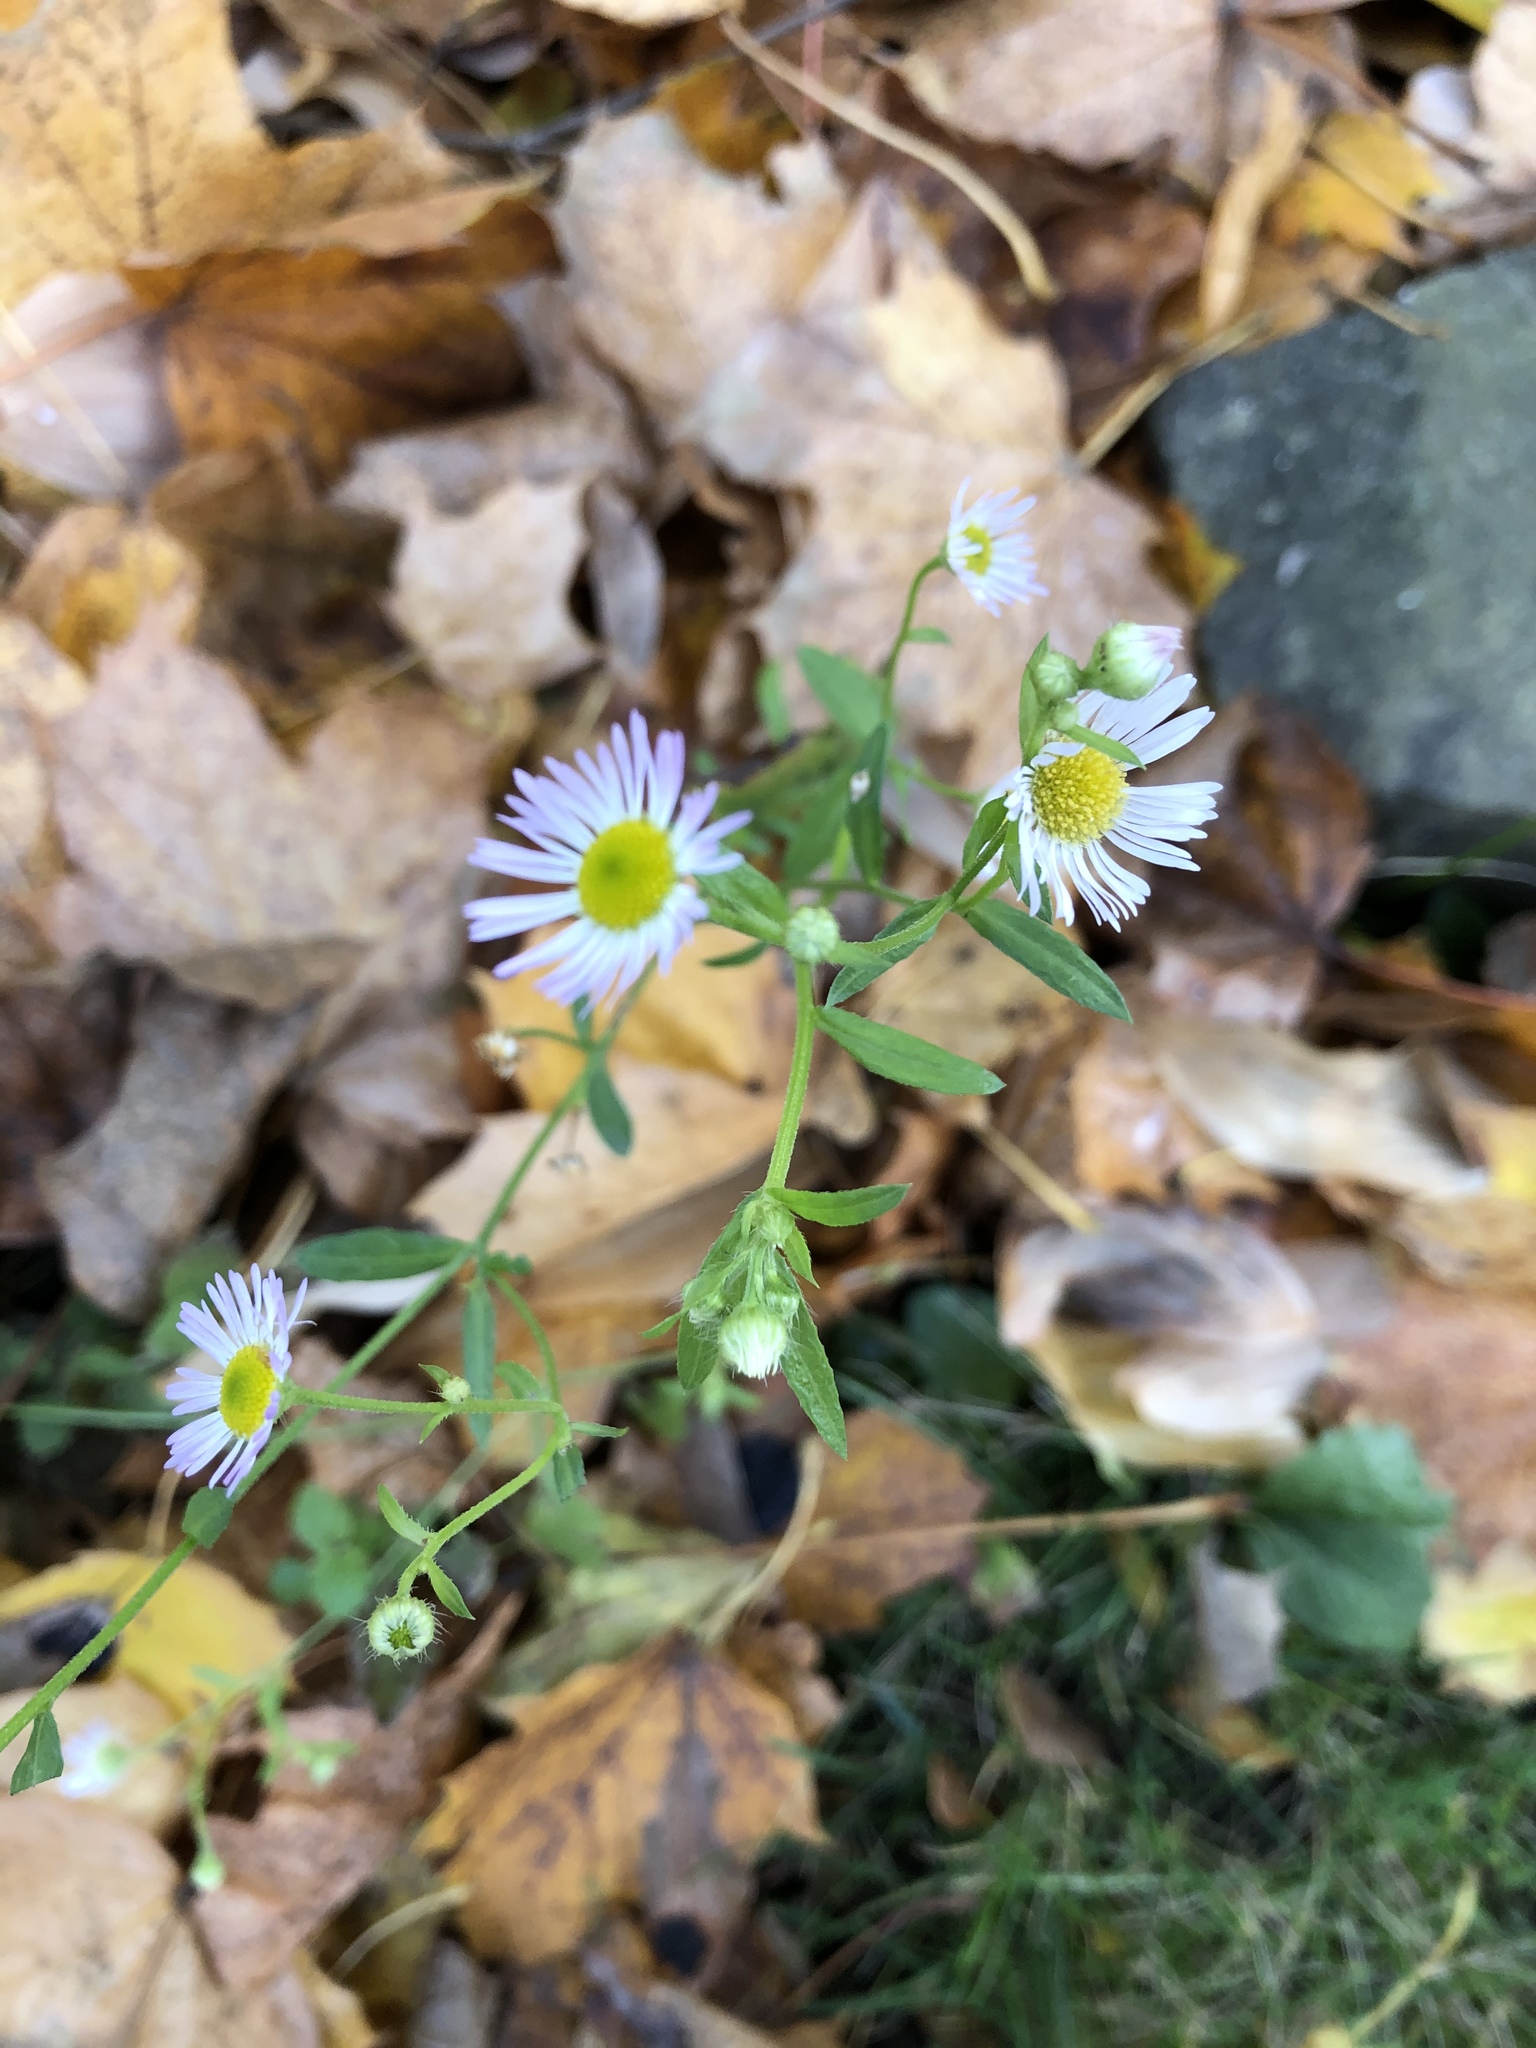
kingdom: Plantae
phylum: Tracheophyta
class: Magnoliopsida
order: Asterales
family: Asteraceae
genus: Erigeron
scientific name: Erigeron strigosus
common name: Common eastern fleabane
